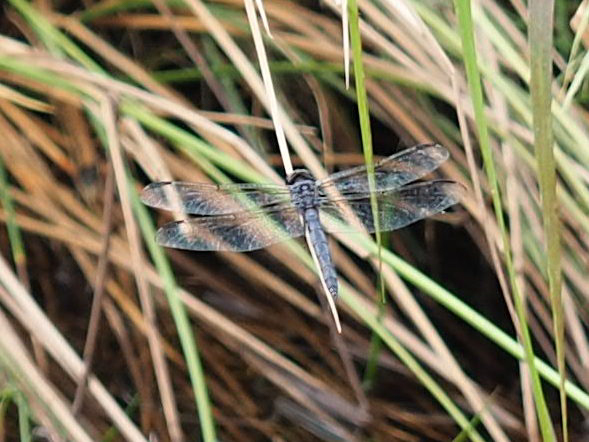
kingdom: Animalia
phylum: Arthropoda
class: Insecta
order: Odonata
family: Libellulidae
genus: Libellula
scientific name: Libellula incesta
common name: Slaty skimmer
